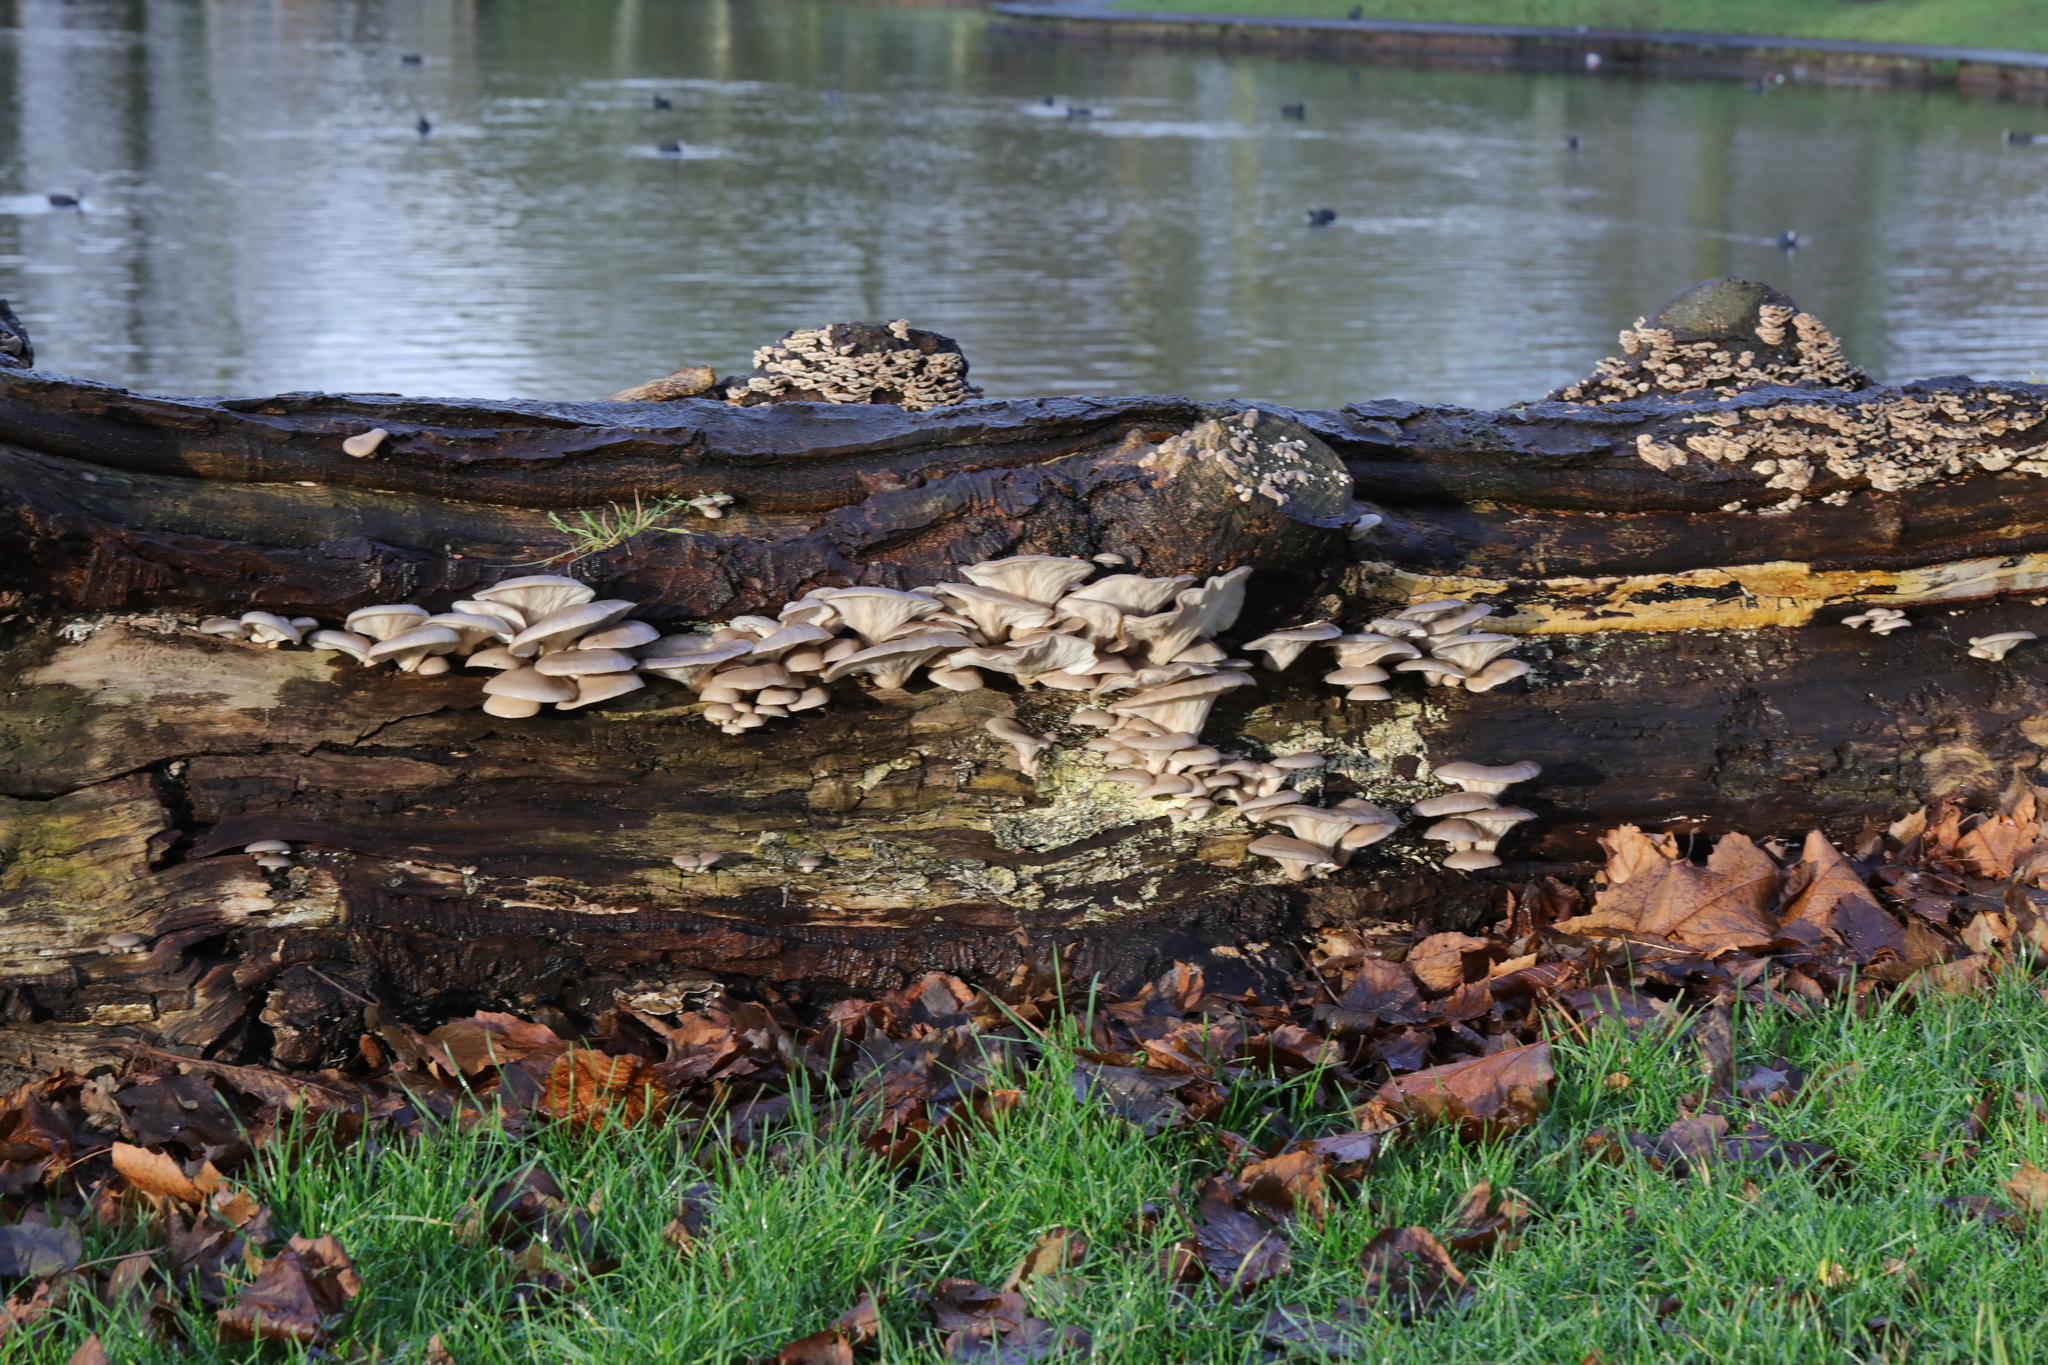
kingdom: Fungi
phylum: Basidiomycota
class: Agaricomycetes
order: Agaricales
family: Pleurotaceae
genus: Pleurotus
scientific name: Pleurotus ostreatus
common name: Oyster mushroom
